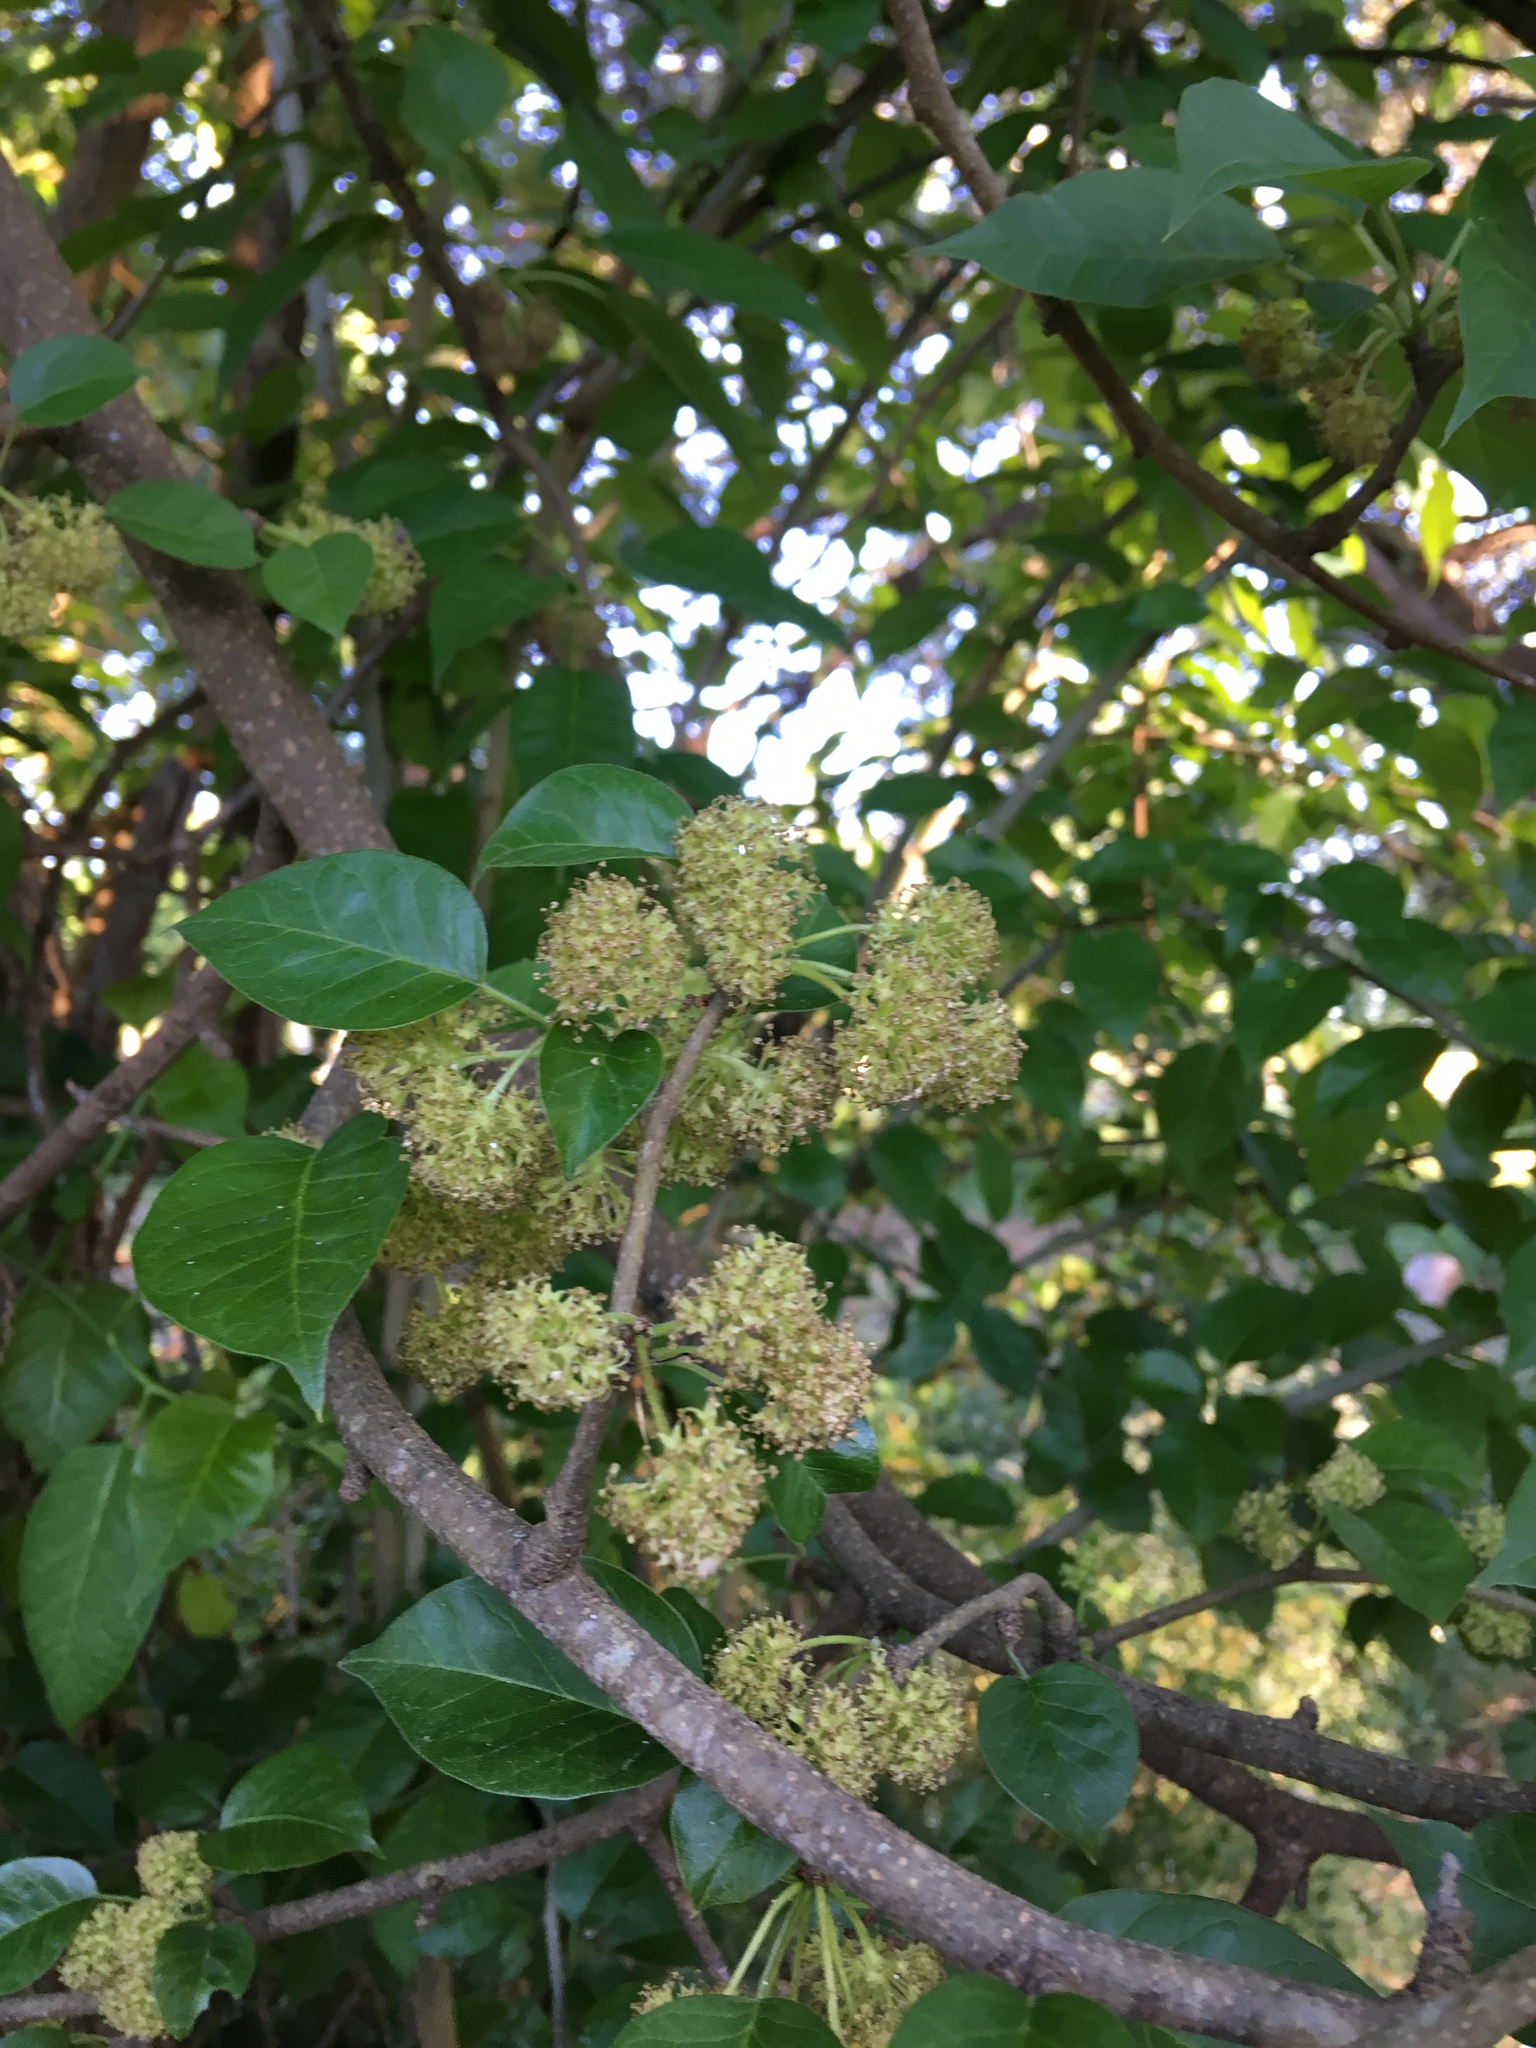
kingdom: Plantae
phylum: Tracheophyta
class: Magnoliopsida
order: Rosales
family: Moraceae
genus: Maclura
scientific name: Maclura pomifera
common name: Osage-orange
